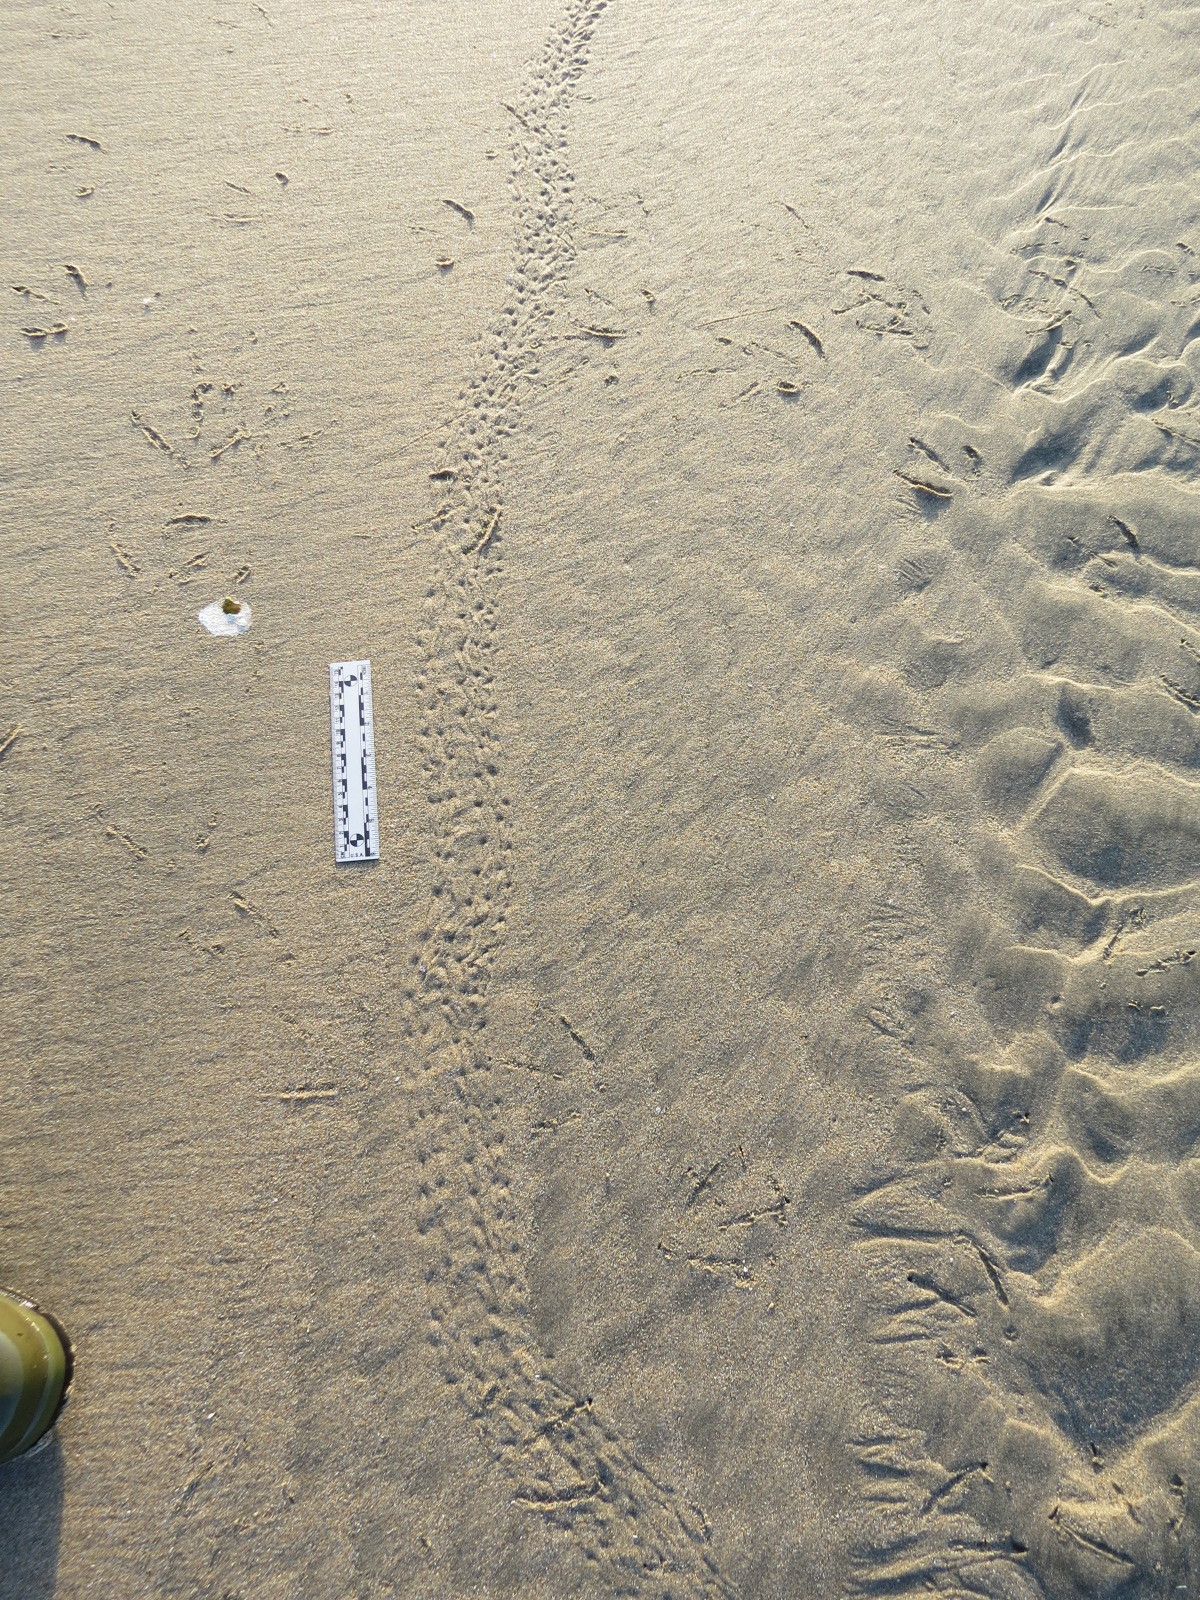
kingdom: Animalia
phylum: Arthropoda
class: Malacostraca
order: Decapoda
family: Grapsidae
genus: Pachygrapsus
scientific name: Pachygrapsus crassipes
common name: Striped shore crab
